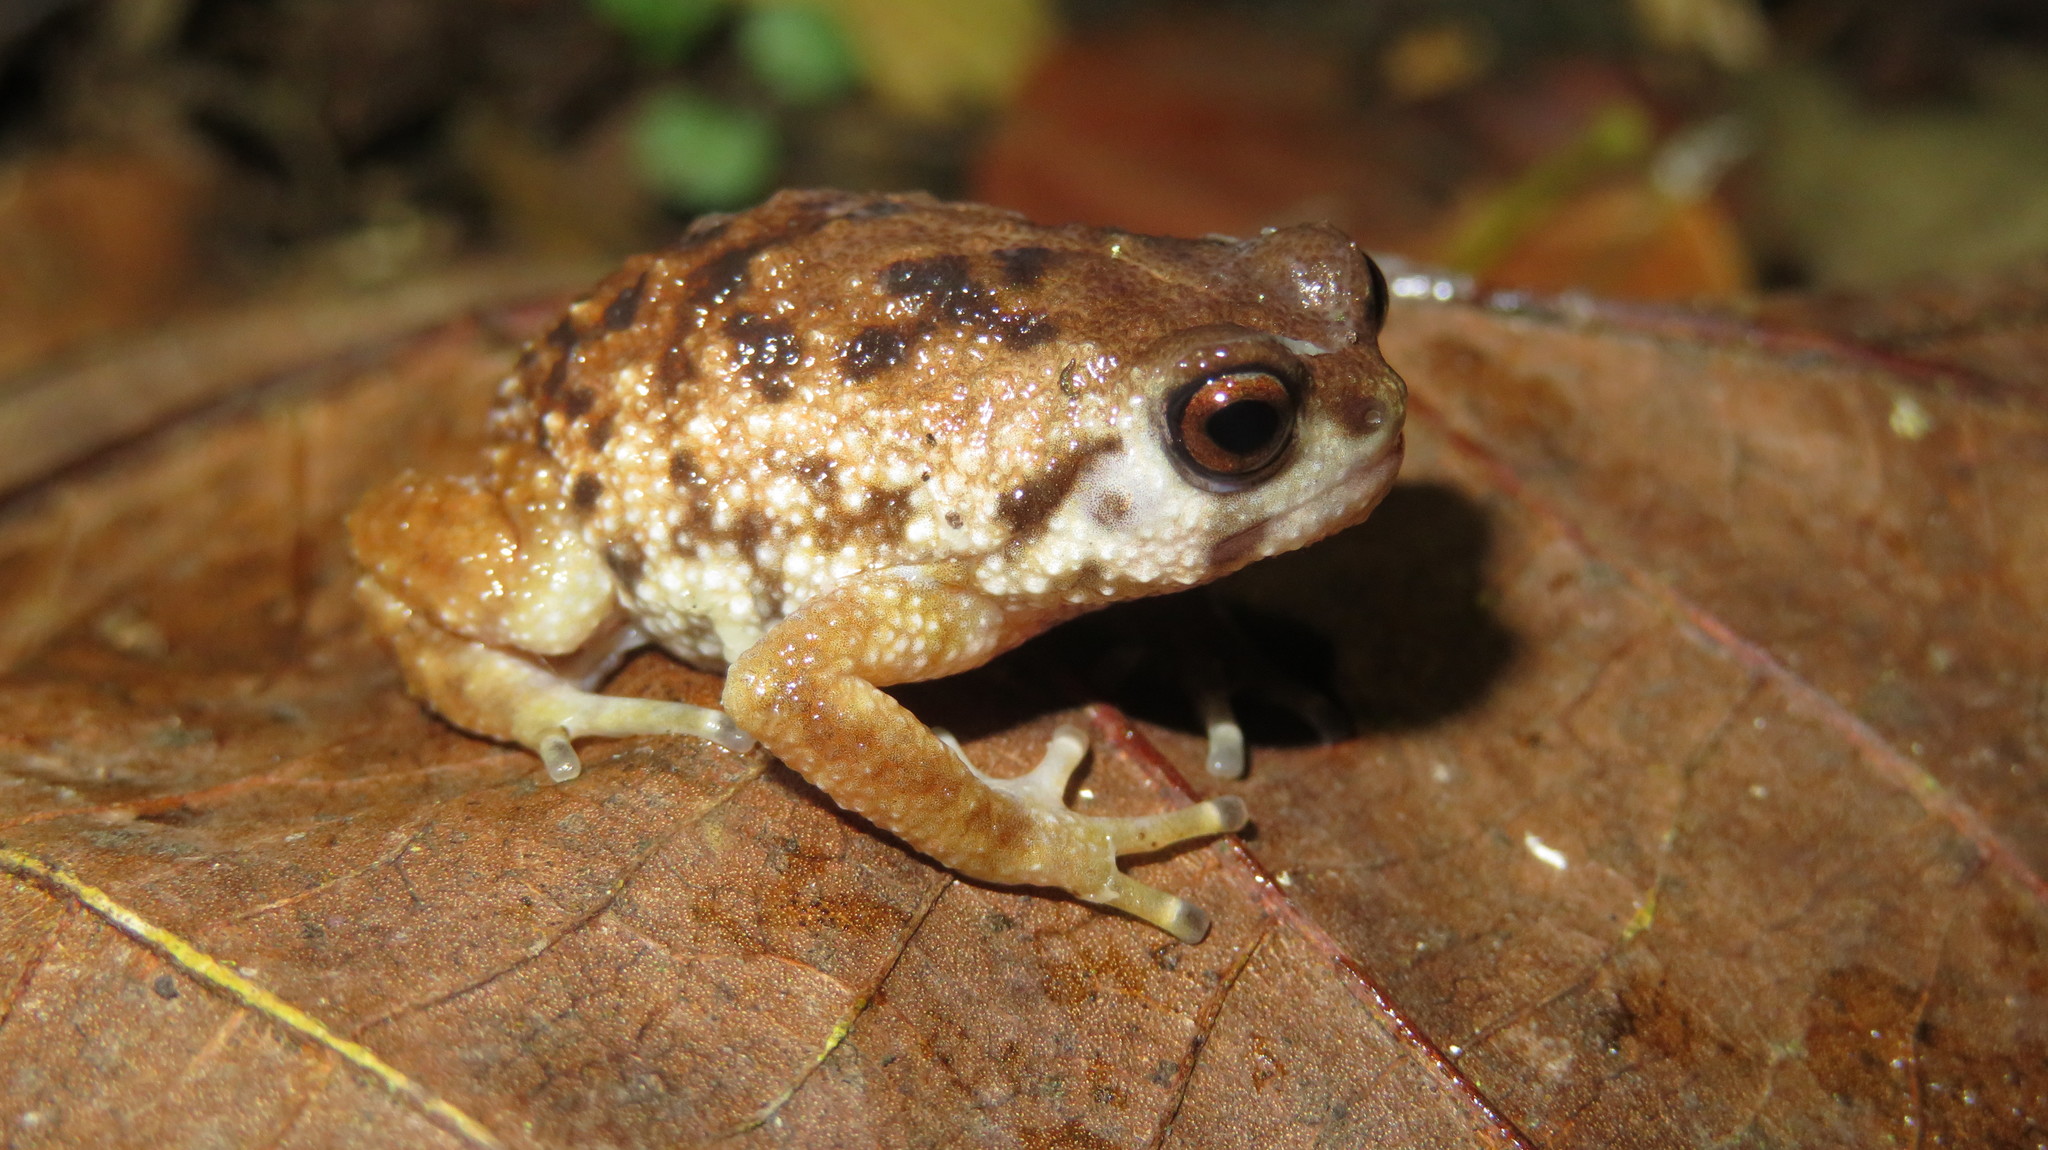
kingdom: Animalia
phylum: Chordata
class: Amphibia
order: Anura
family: Brevicipitidae
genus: Callulina
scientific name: Callulina kisiwamsitu
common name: Mazumbai warty frog
